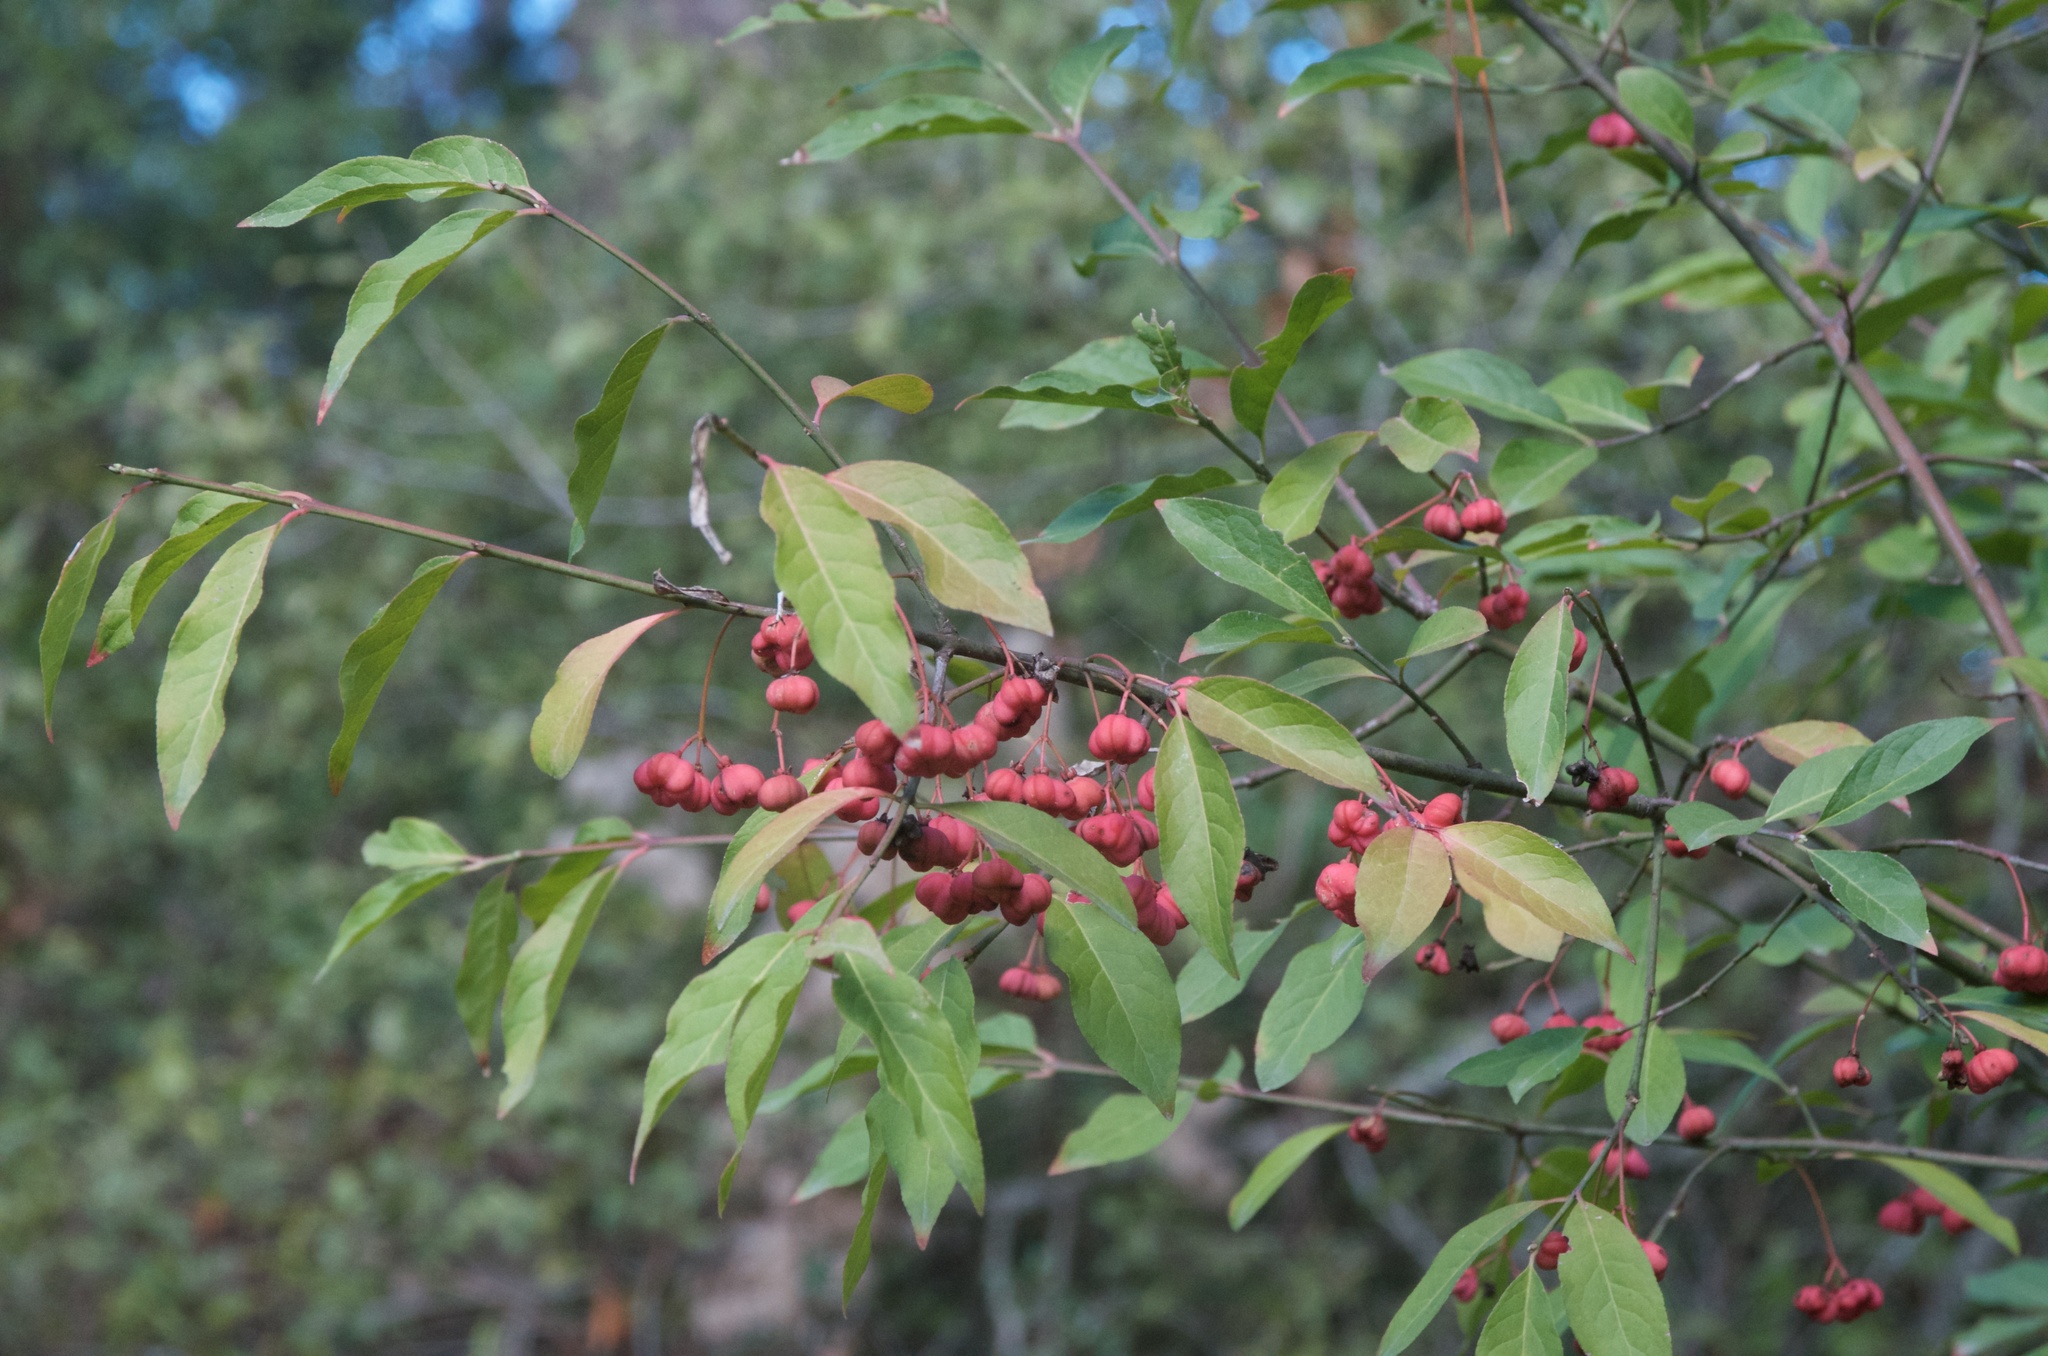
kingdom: Plantae
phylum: Tracheophyta
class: Magnoliopsida
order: Celastrales
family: Celastraceae
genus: Euonymus
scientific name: Euonymus europaeus
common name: Spindle
